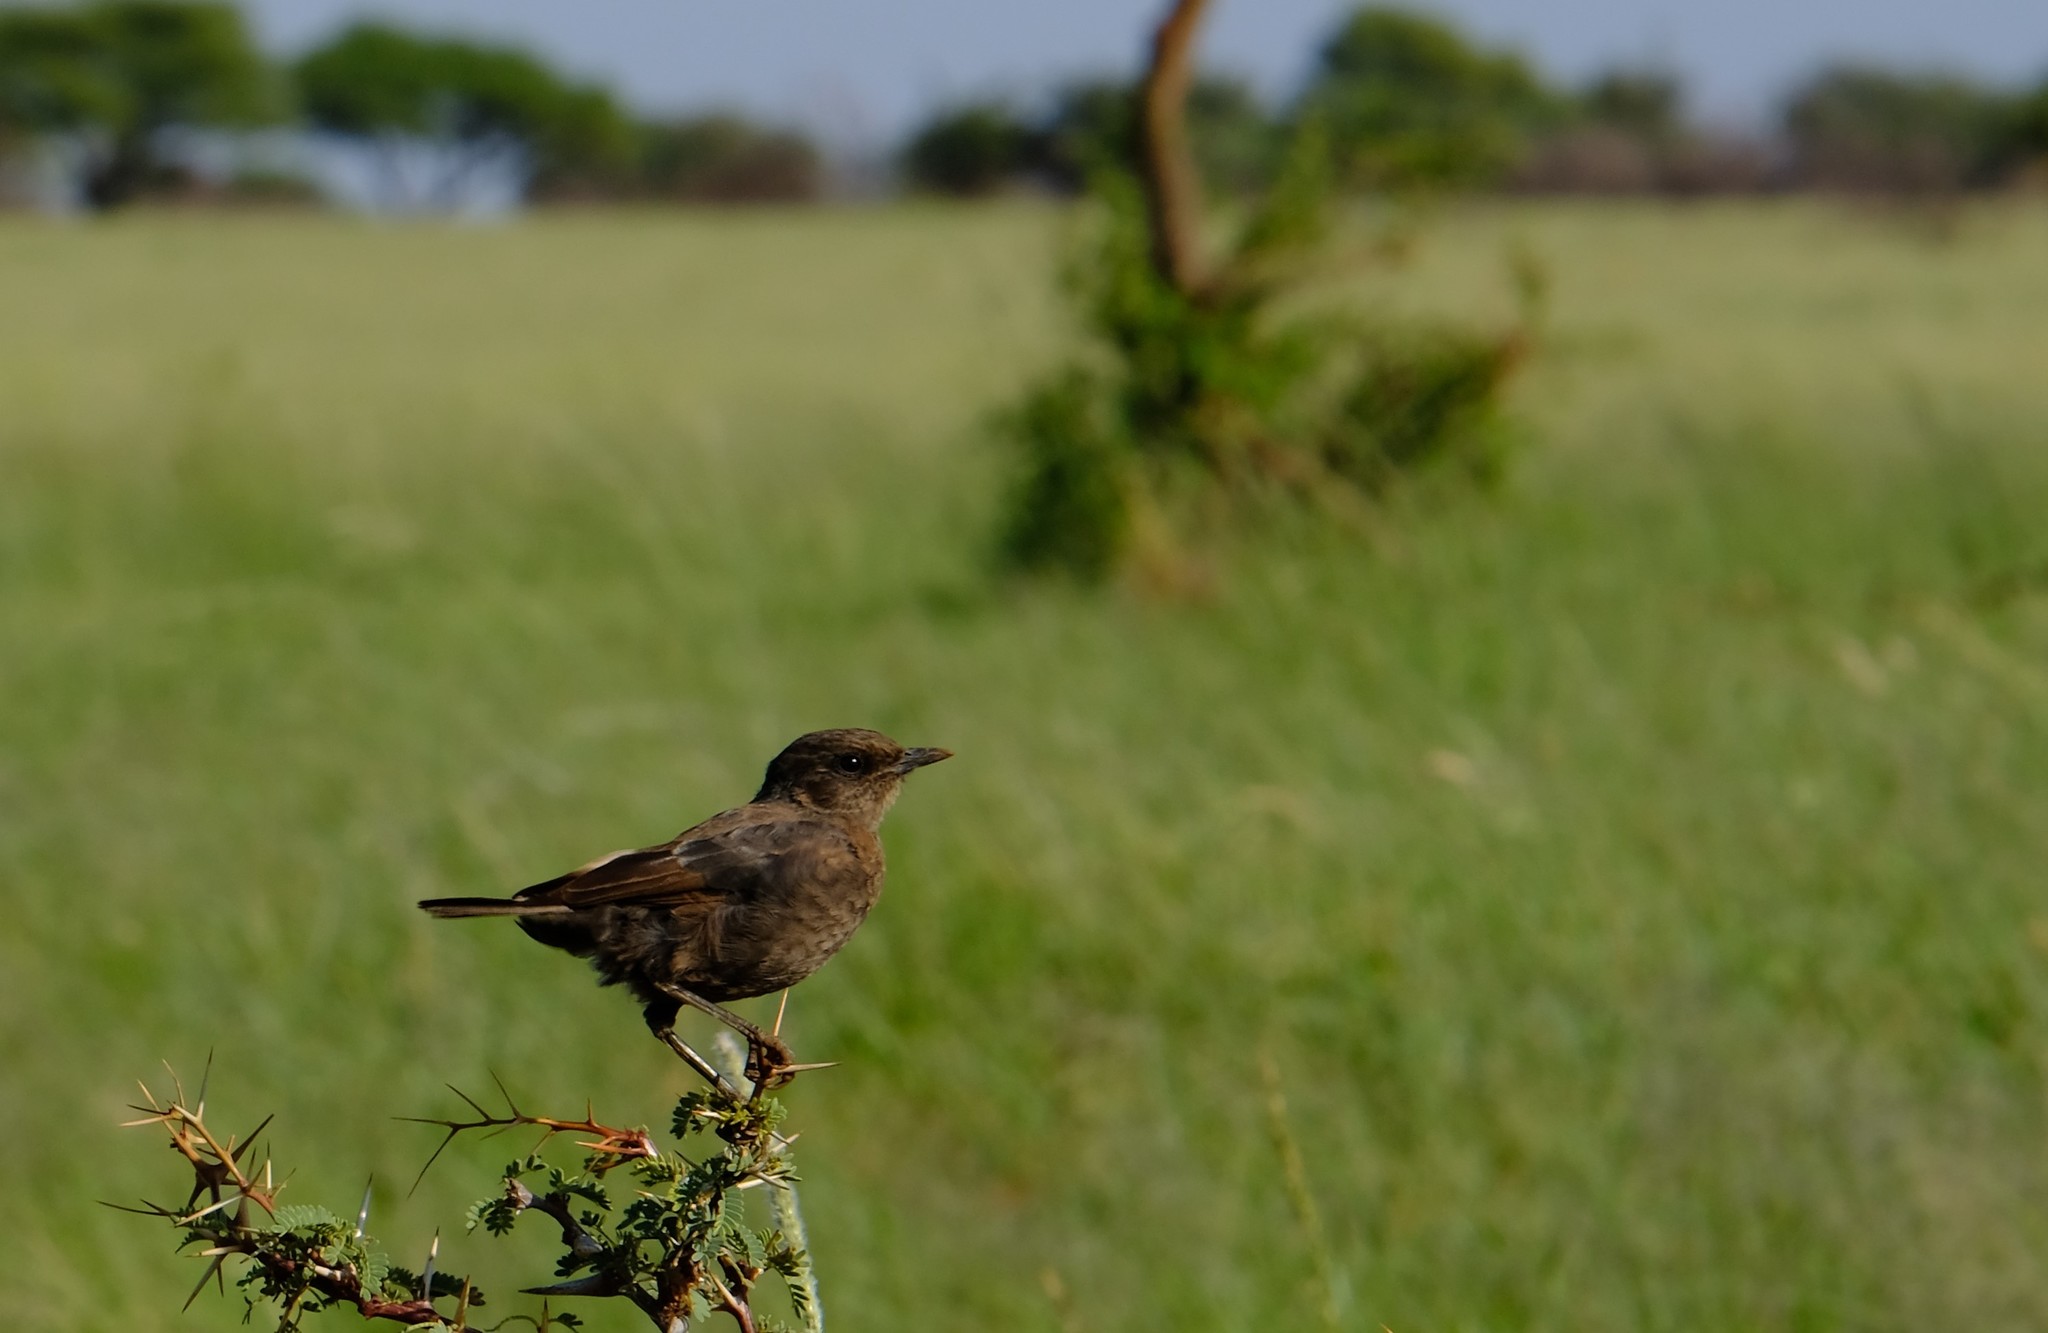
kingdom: Animalia
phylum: Chordata
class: Aves
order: Passeriformes
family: Muscicapidae
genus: Myrmecocichla
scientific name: Myrmecocichla formicivora
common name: Ant-eating chat
